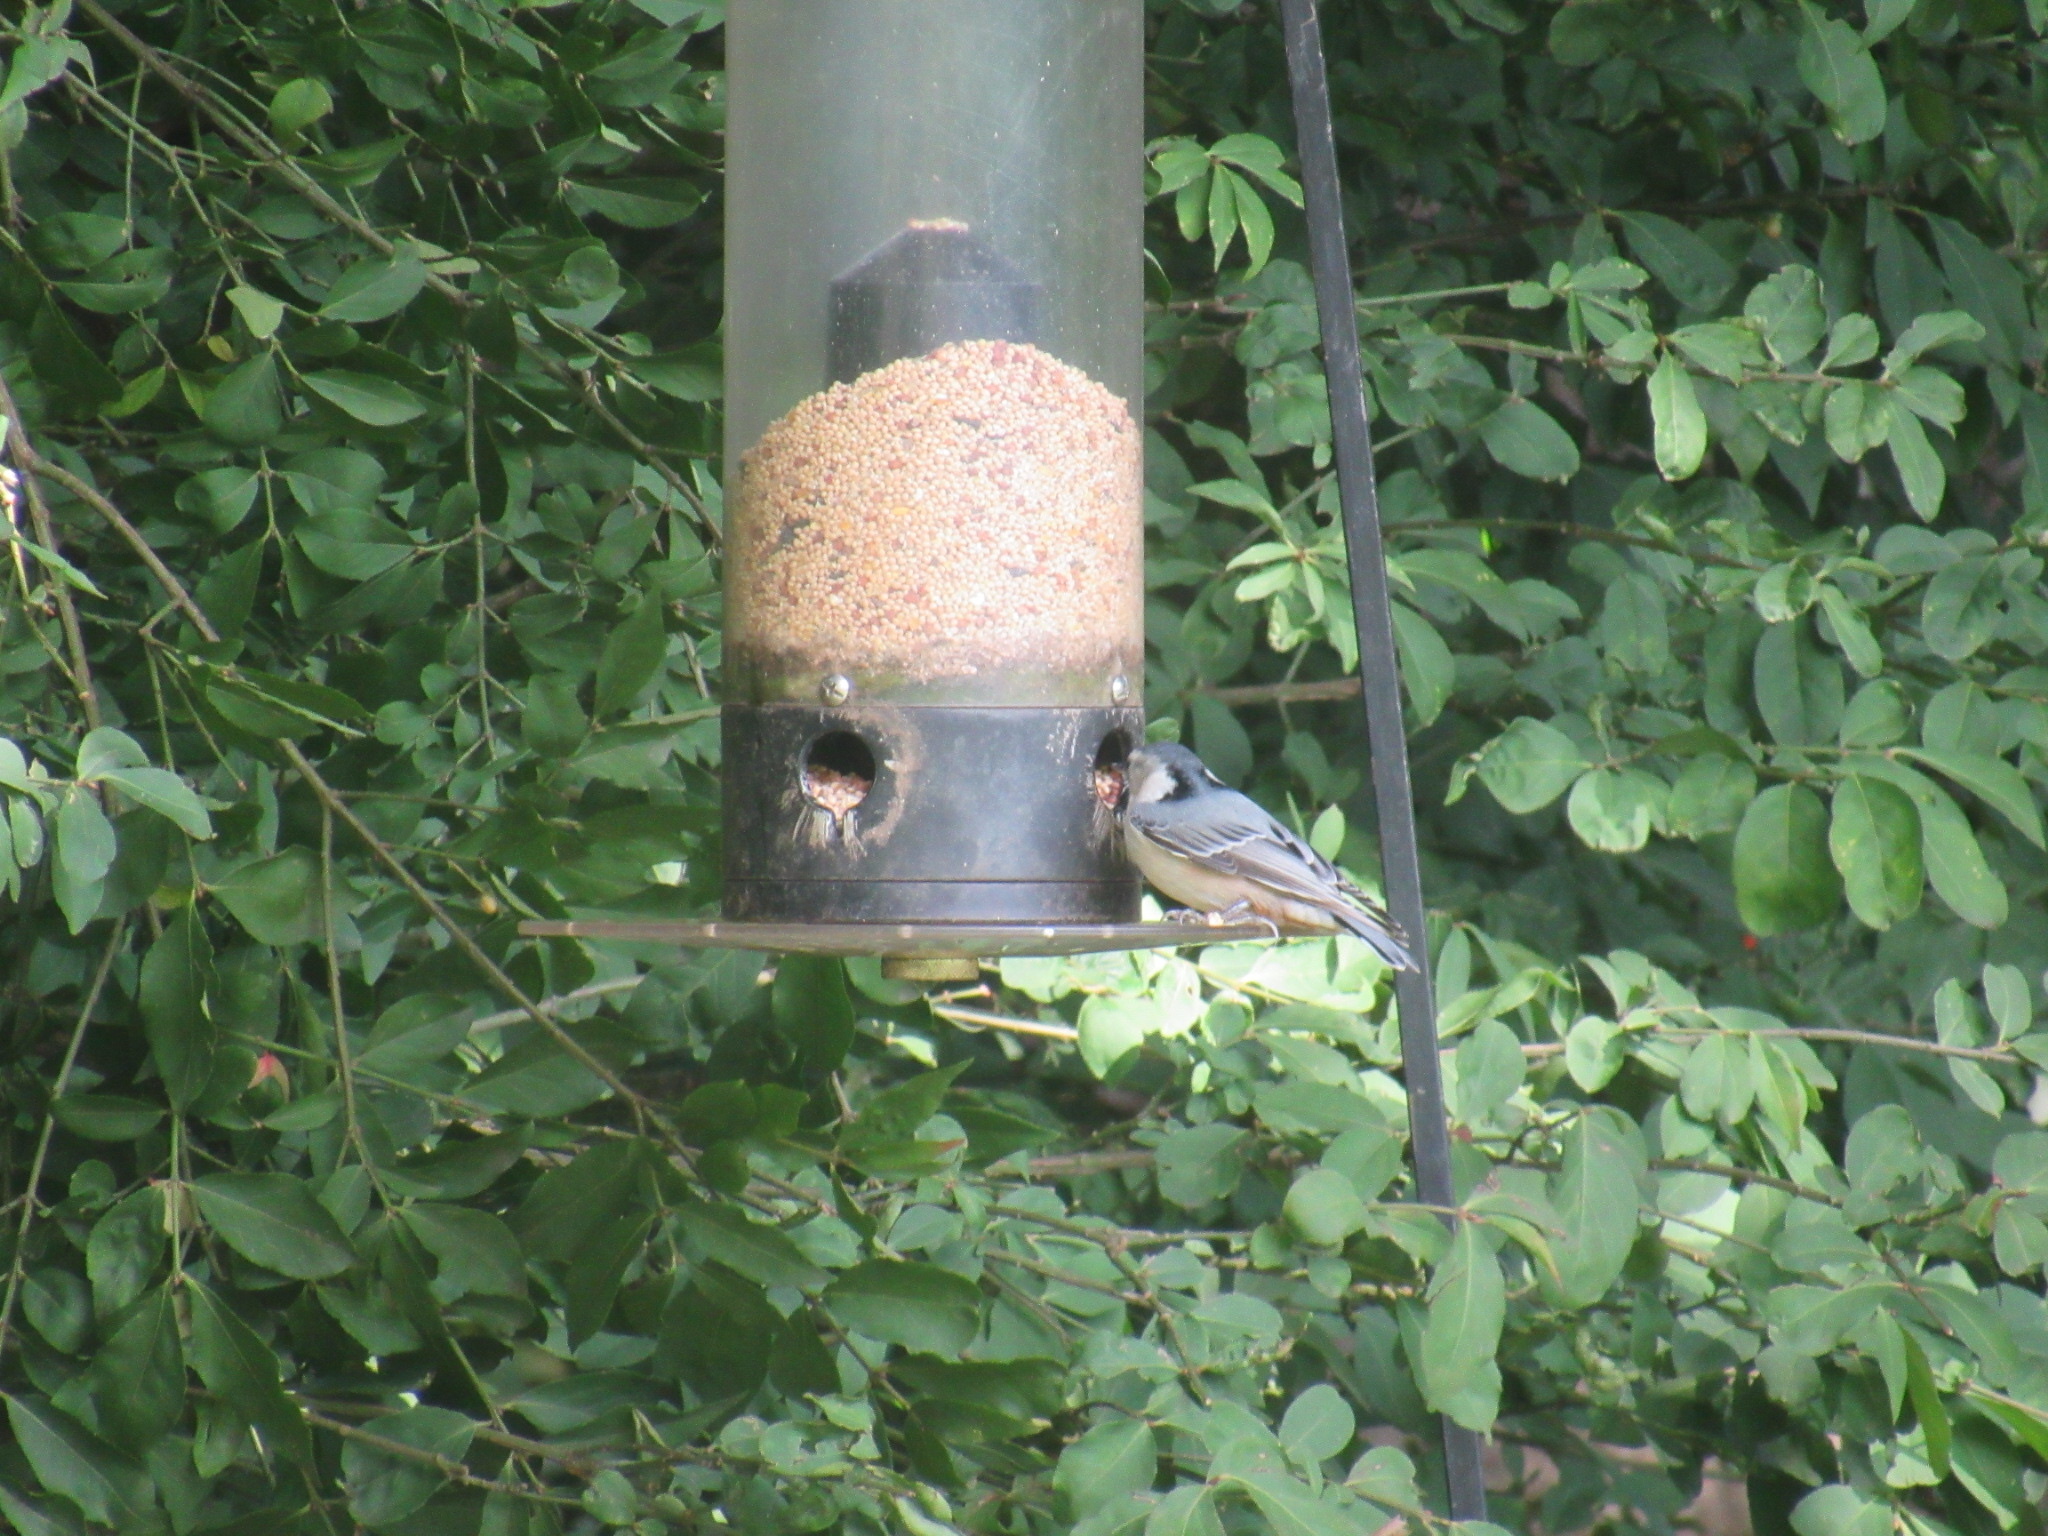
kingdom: Animalia
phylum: Chordata
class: Aves
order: Passeriformes
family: Sittidae
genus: Sitta
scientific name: Sitta carolinensis
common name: White-breasted nuthatch
